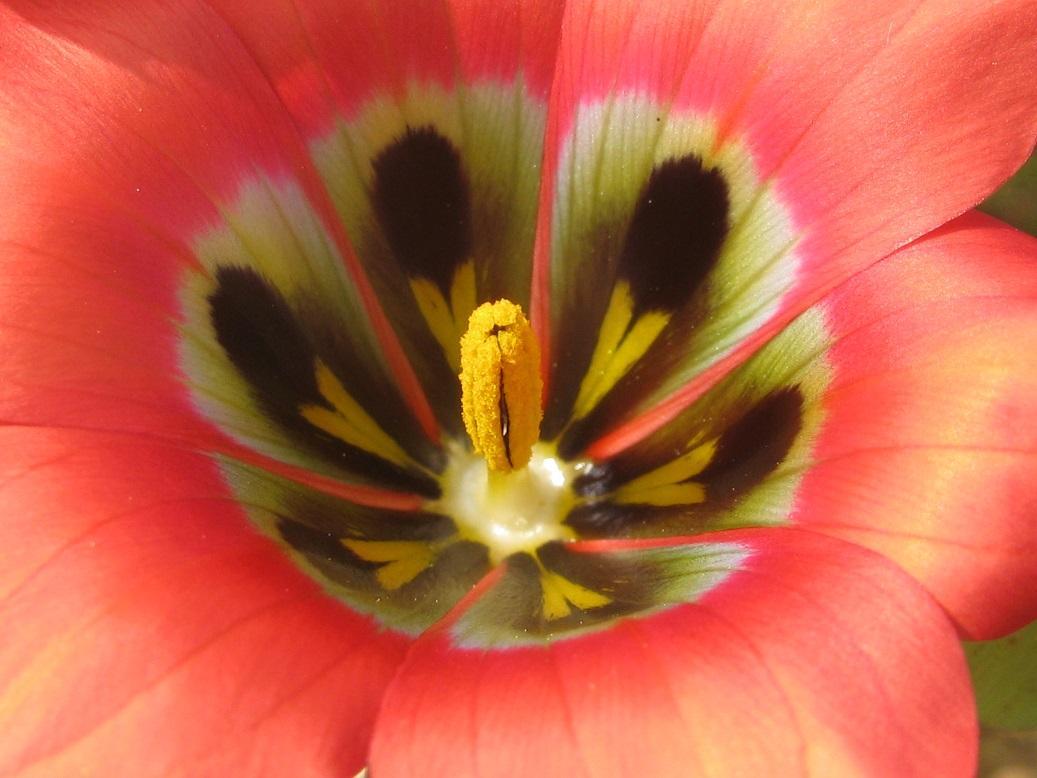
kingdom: Plantae
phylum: Tracheophyta
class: Liliopsida
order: Asparagales
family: Iridaceae
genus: Romulea
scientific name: Romulea sabulosa
